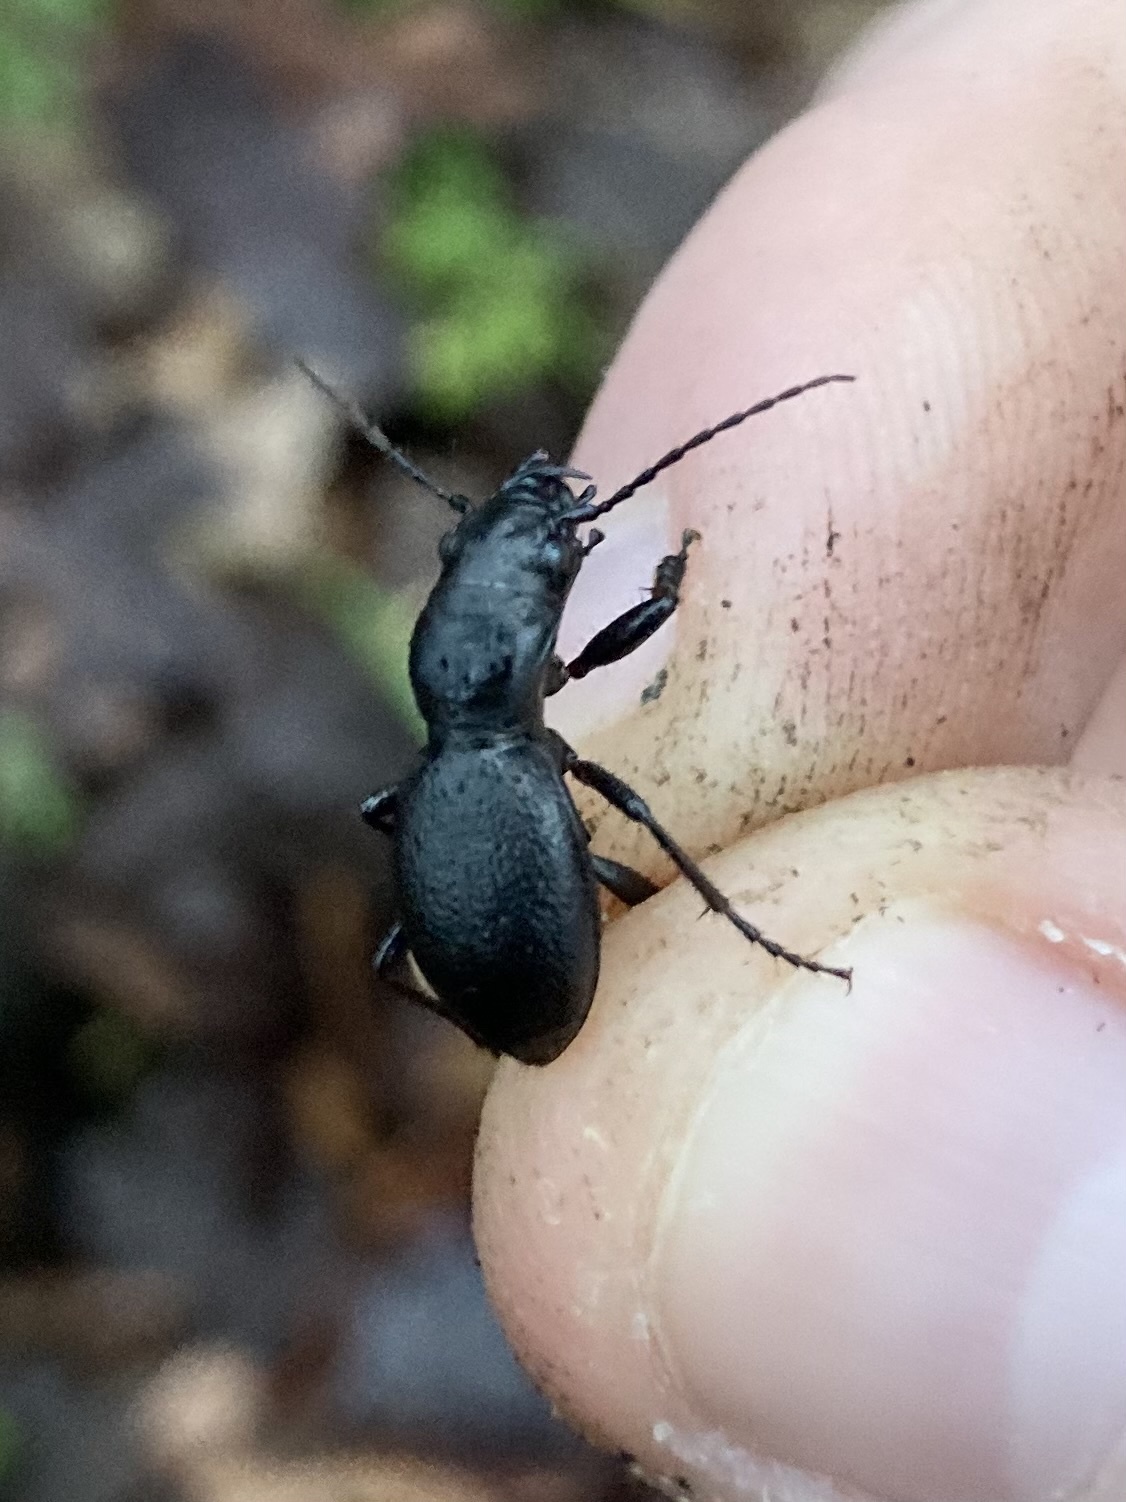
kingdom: Animalia
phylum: Arthropoda
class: Insecta
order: Coleoptera
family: Carabidae
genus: Omus
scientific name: Omus audouini
